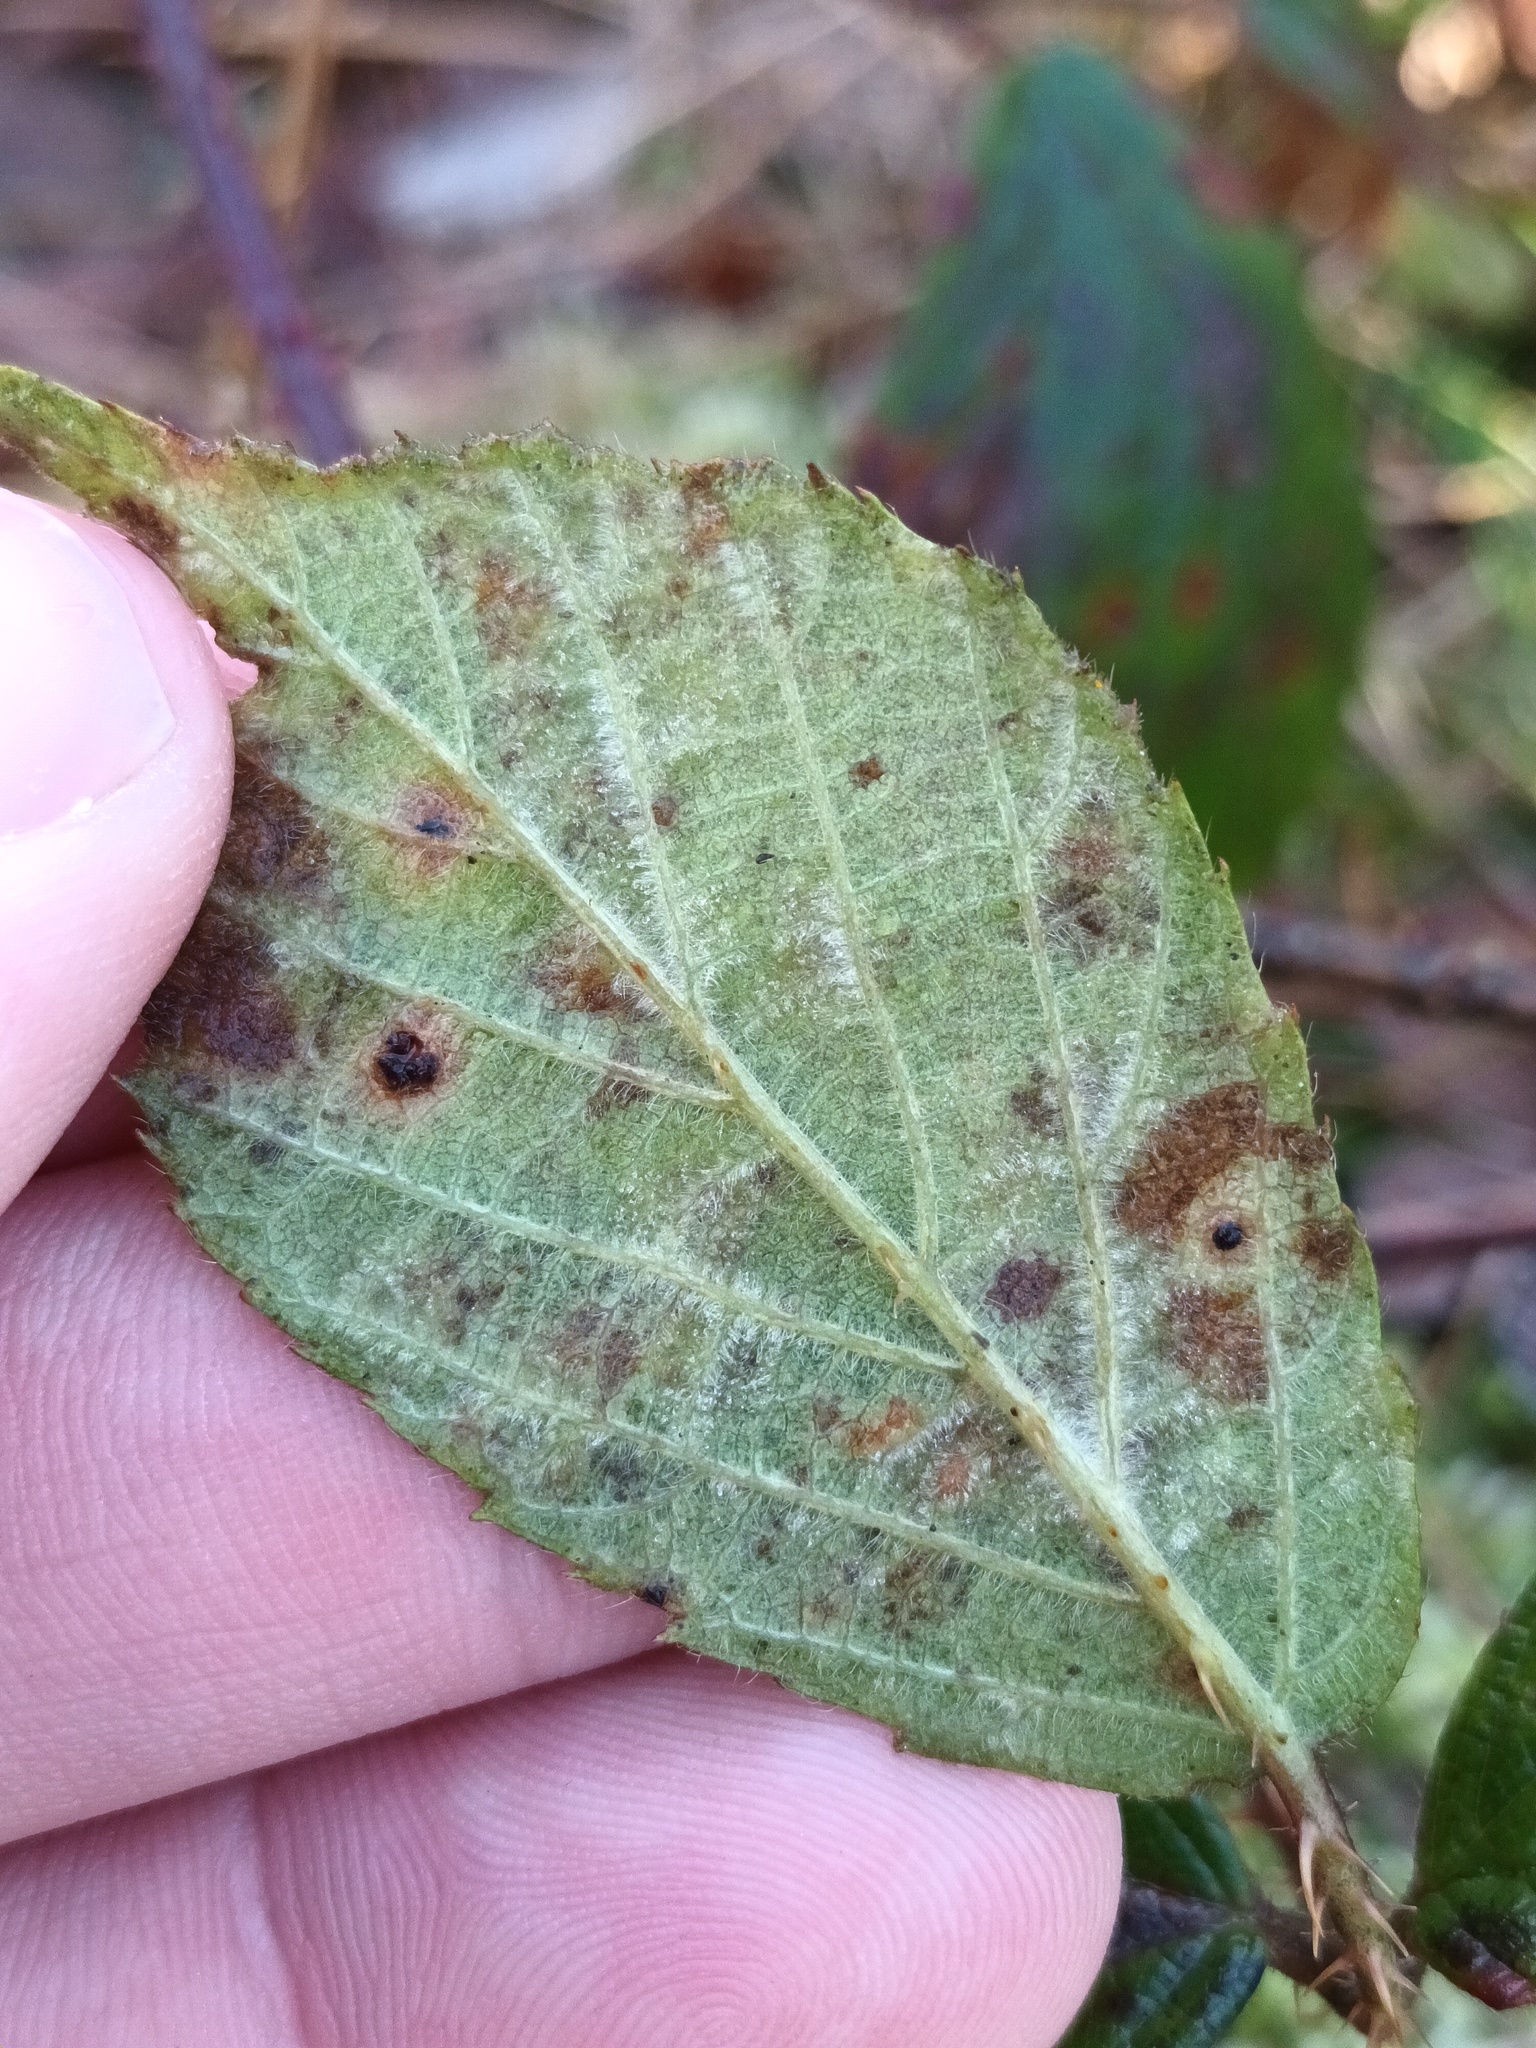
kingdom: Fungi
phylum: Basidiomycota
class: Pucciniomycetes
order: Pucciniales
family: Phragmidiaceae
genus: Phragmidium
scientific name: Phragmidium violaceum
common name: Violet bramble rust
